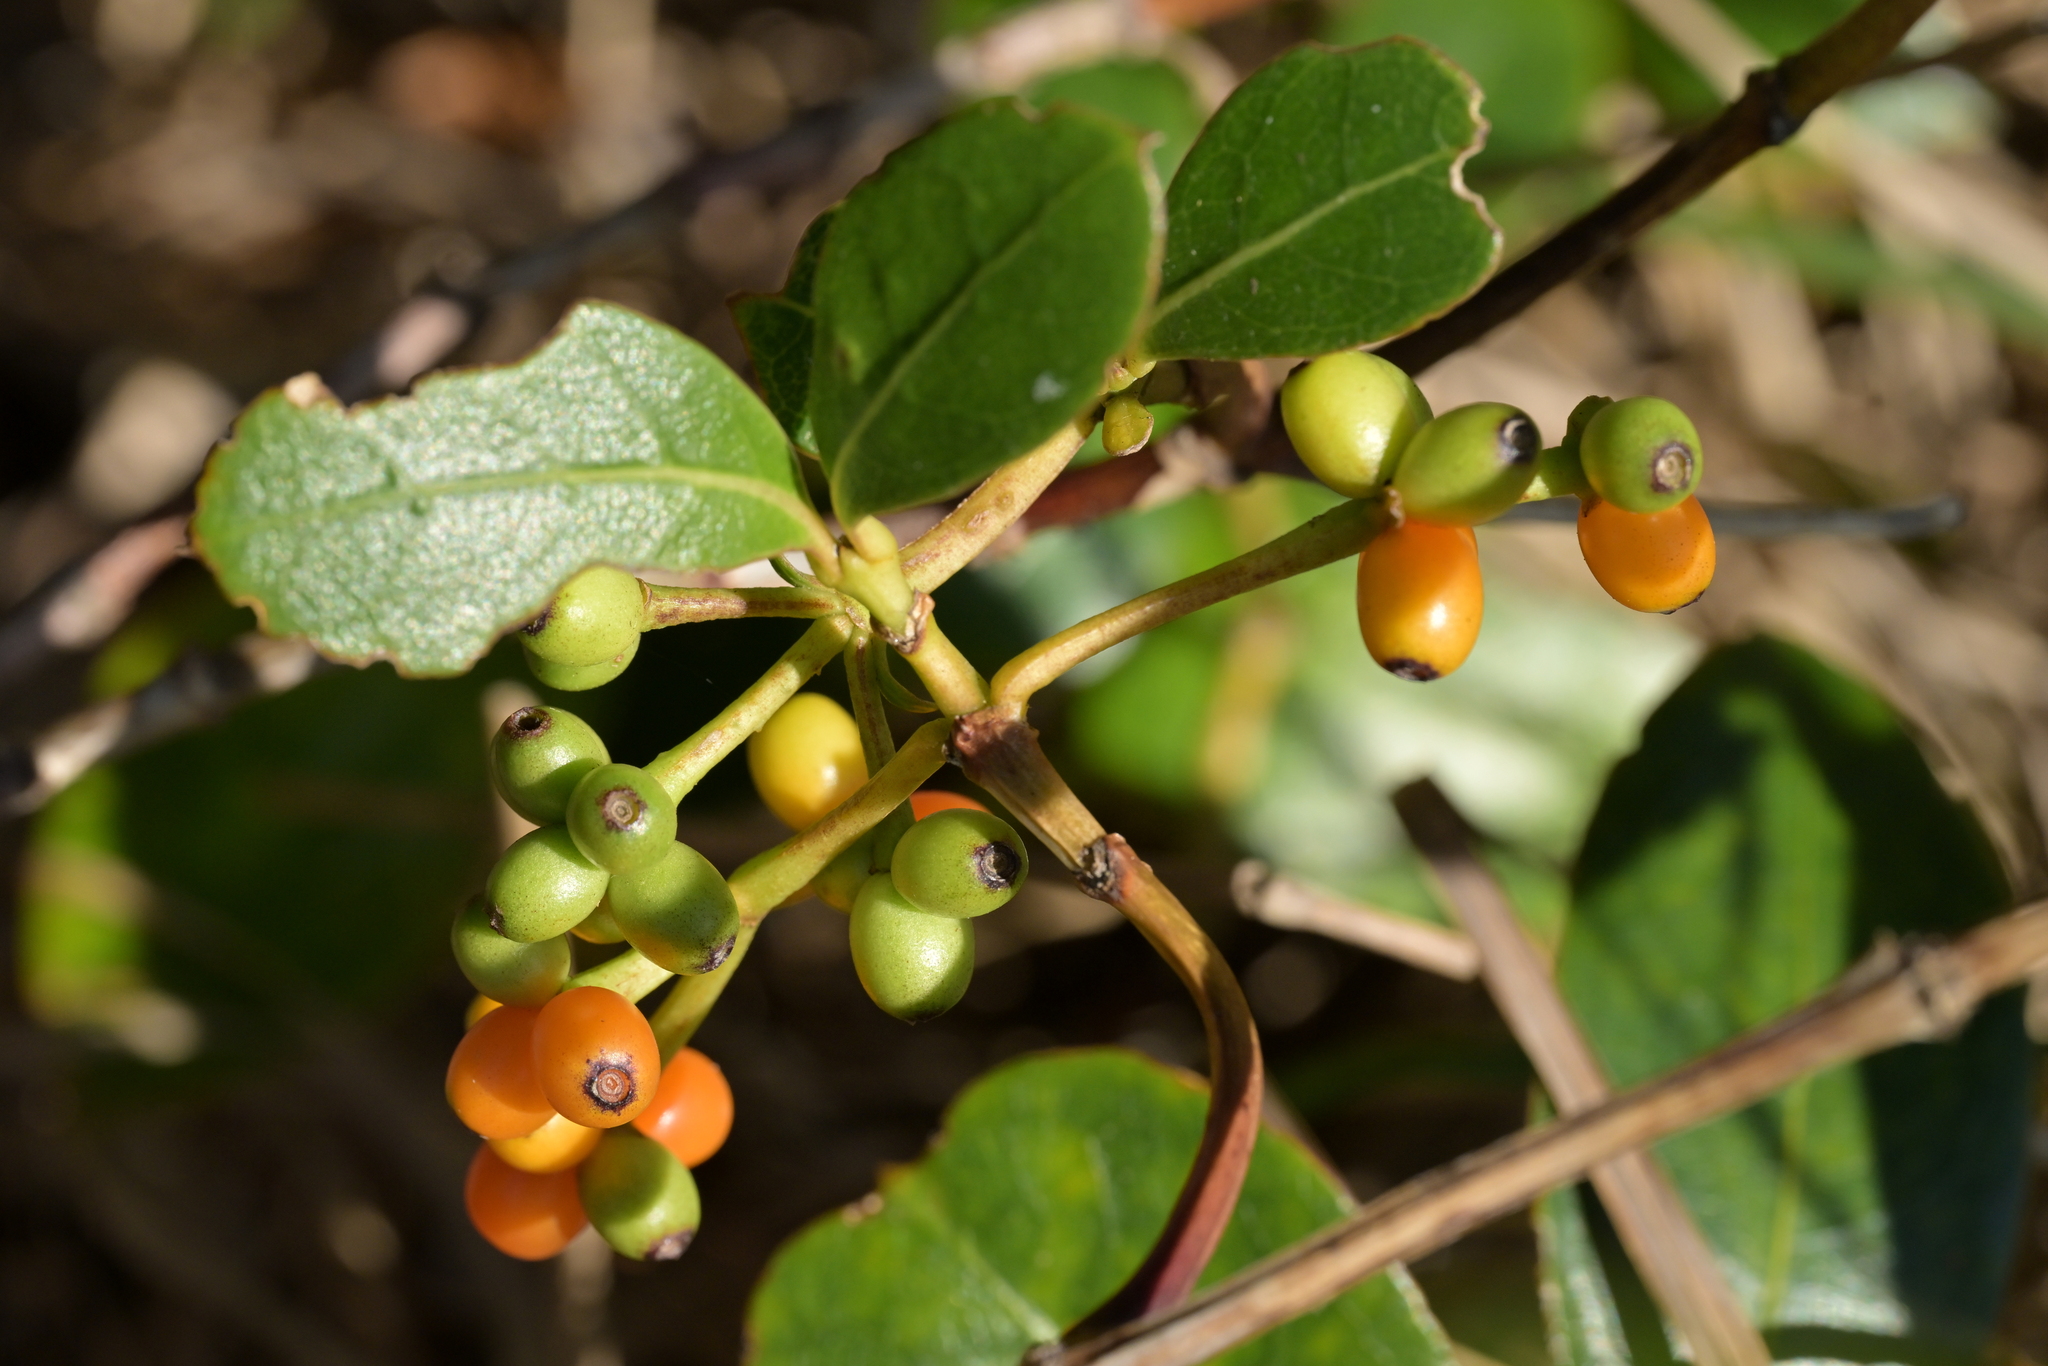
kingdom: Plantae
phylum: Tracheophyta
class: Magnoliopsida
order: Gentianales
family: Rubiaceae
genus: Coprosma
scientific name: Coprosma lucida
